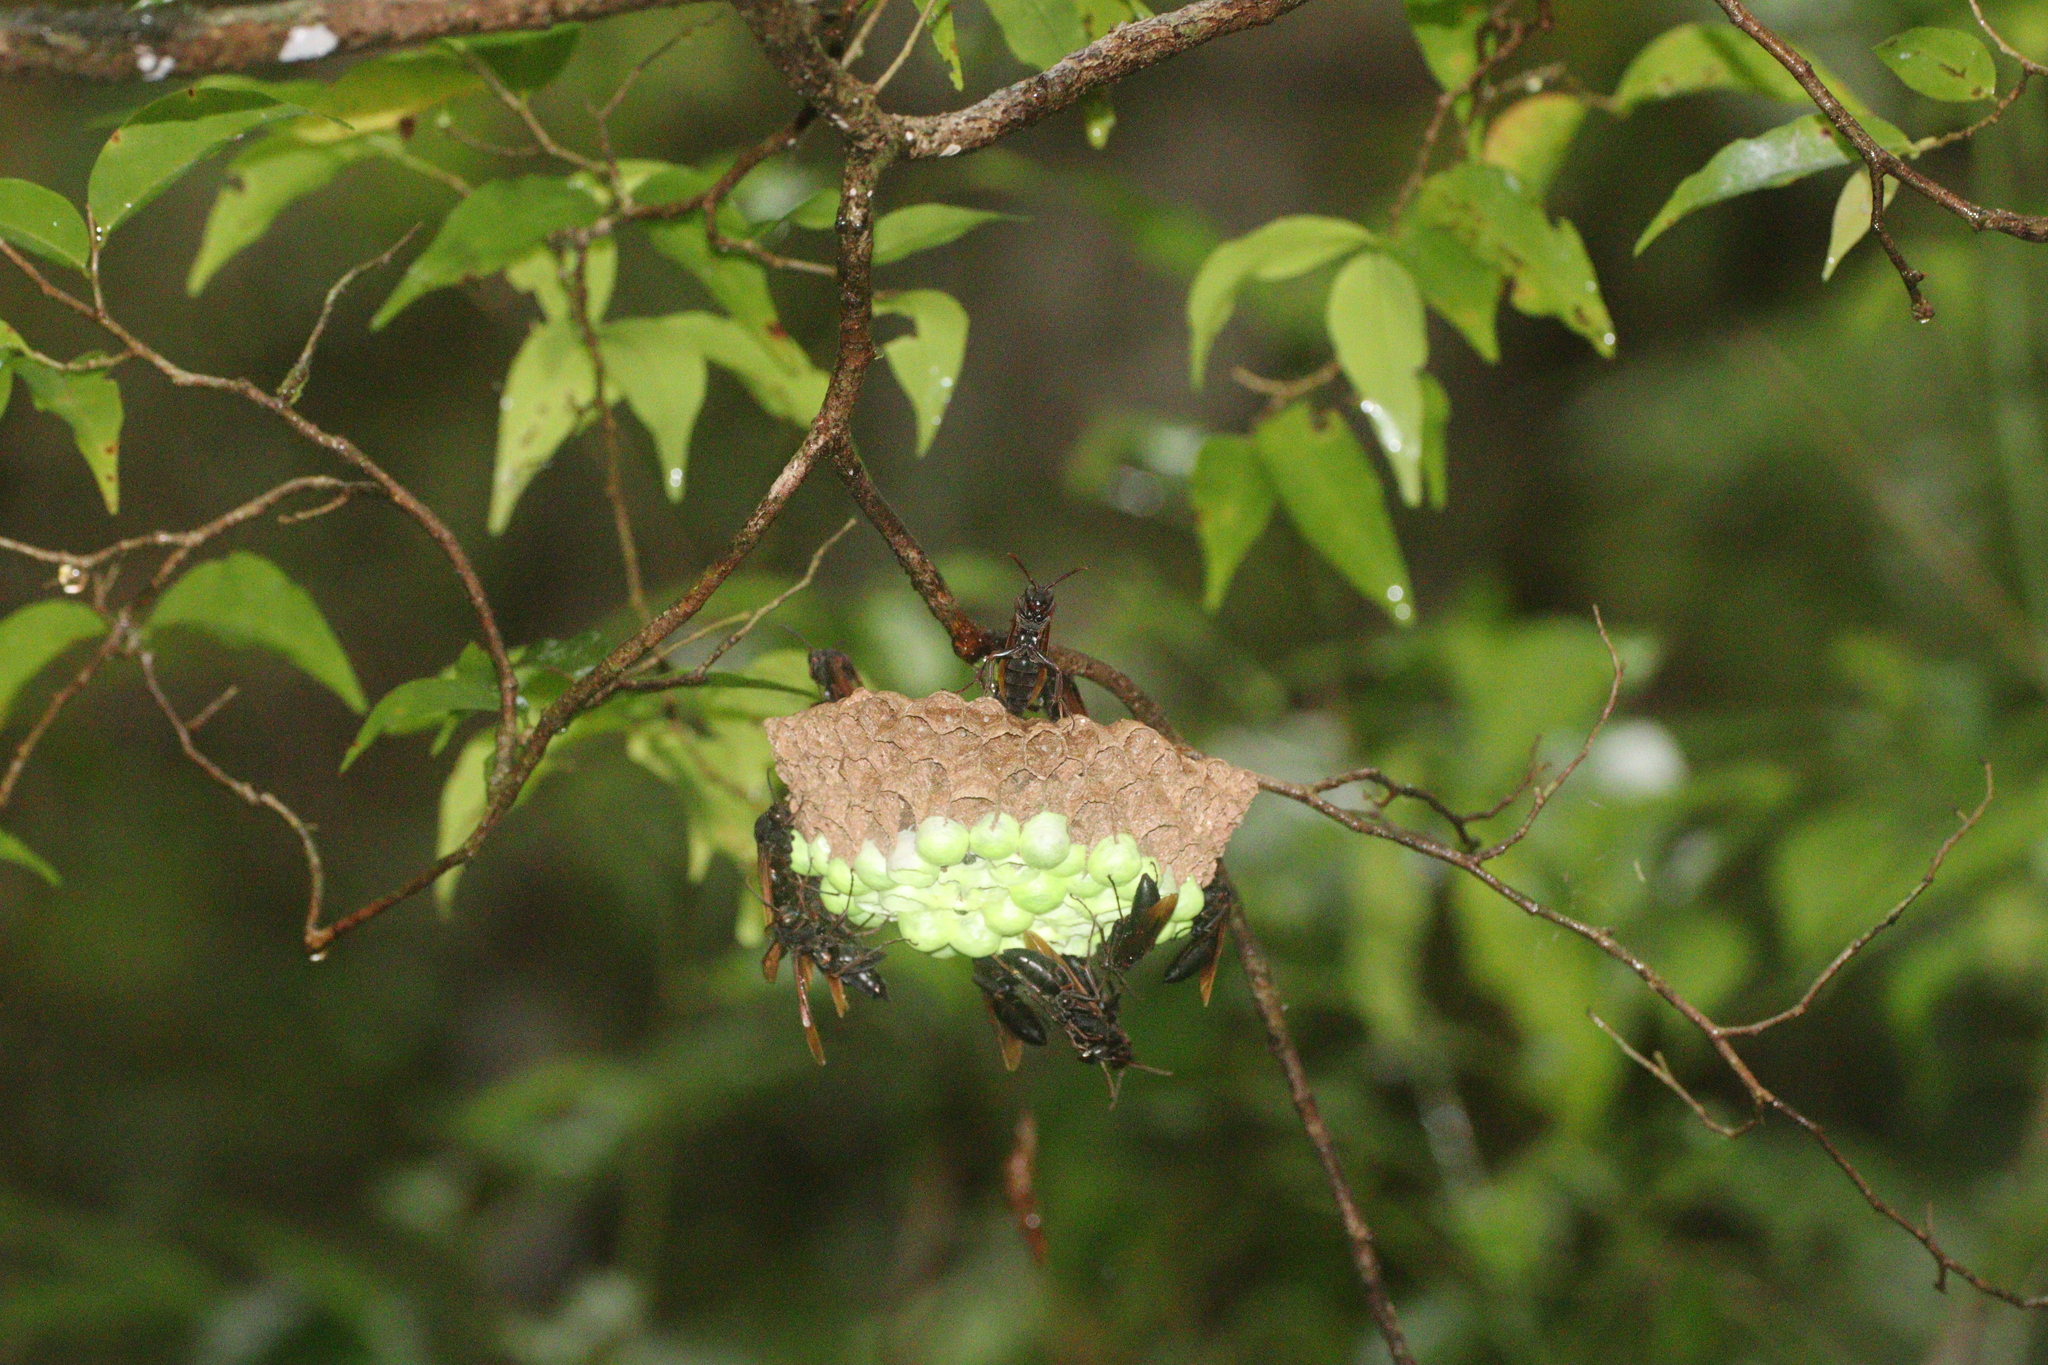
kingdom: Animalia
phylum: Arthropoda
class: Insecta
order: Hymenoptera
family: Eumenidae
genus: Polistes
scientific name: Polistes philippinensis
